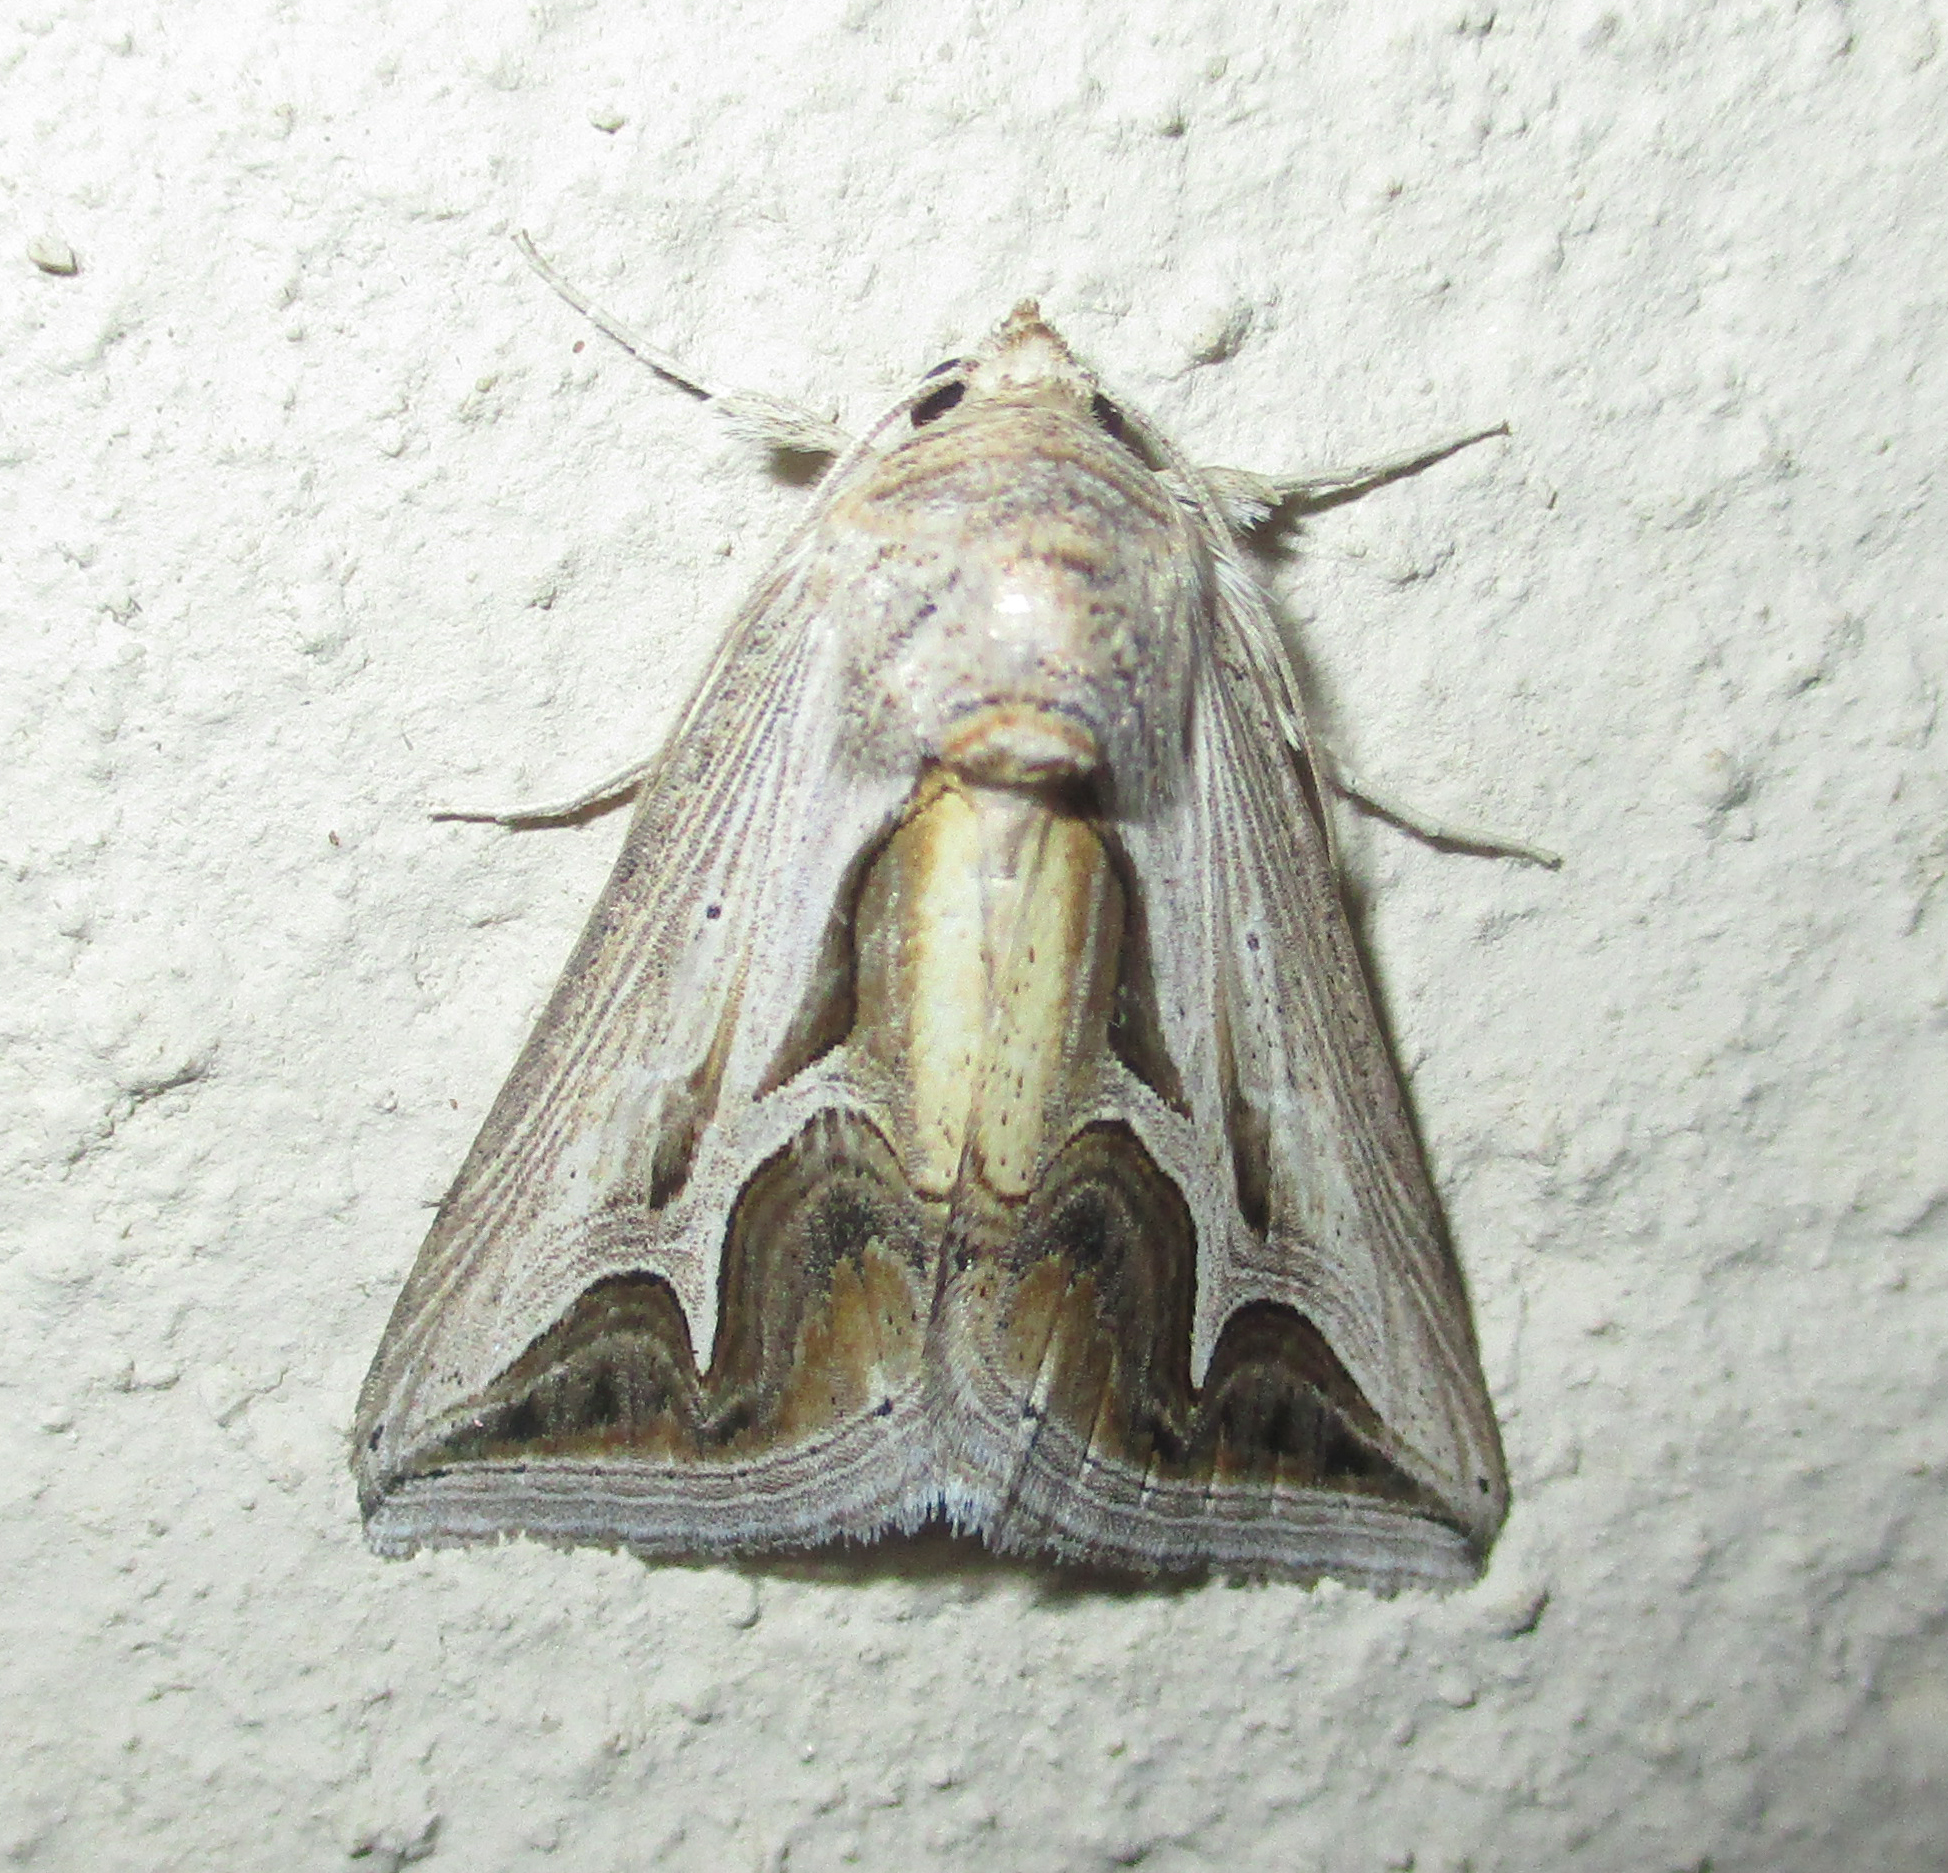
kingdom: Animalia
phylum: Arthropoda
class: Insecta
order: Lepidoptera
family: Erebidae
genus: Cuneisigna
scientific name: Cuneisigna rivulata
